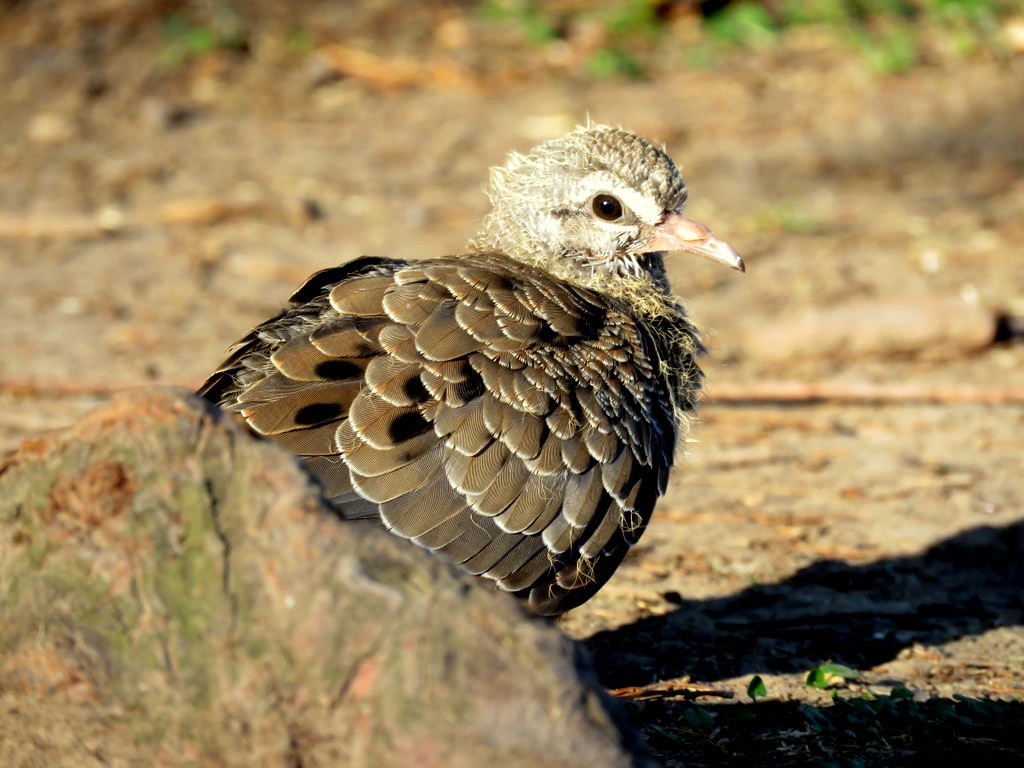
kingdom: Animalia
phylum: Chordata
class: Aves
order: Columbiformes
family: Columbidae
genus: Zenaida
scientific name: Zenaida auriculata
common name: Eared dove
